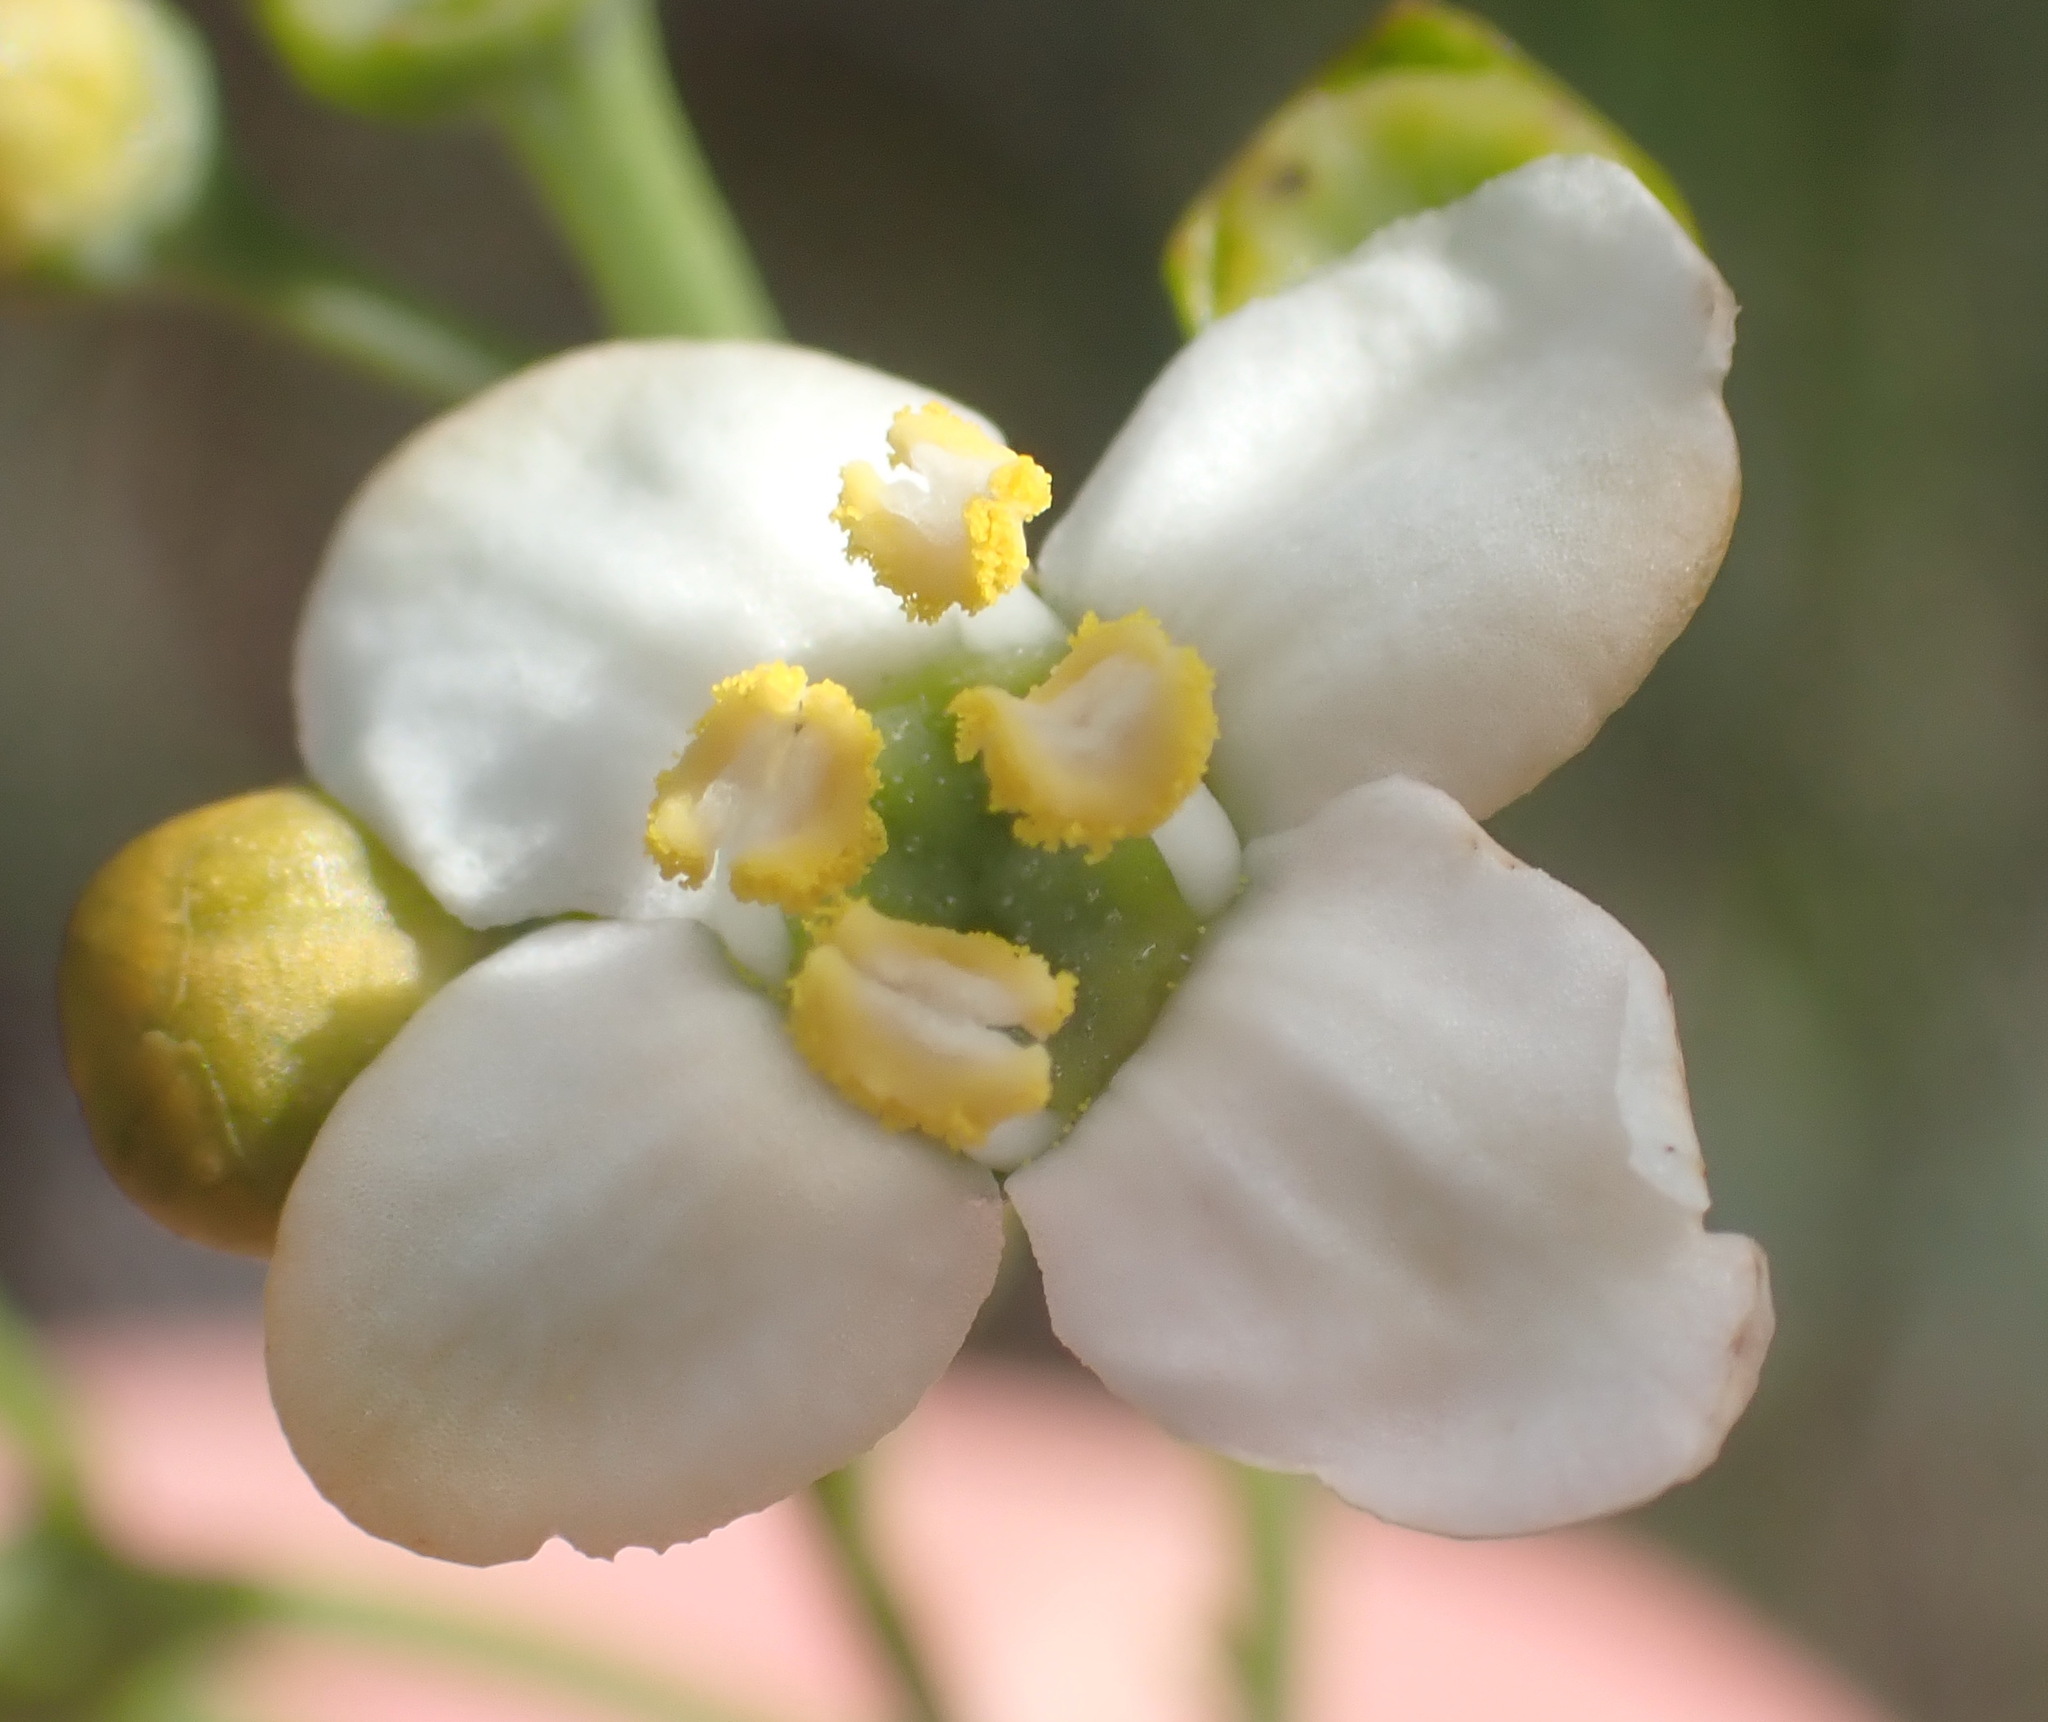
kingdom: Plantae
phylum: Tracheophyta
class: Magnoliopsida
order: Solanales
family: Montiniaceae
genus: Montinia
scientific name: Montinia caryophyllacea
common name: Wild clove-bush
